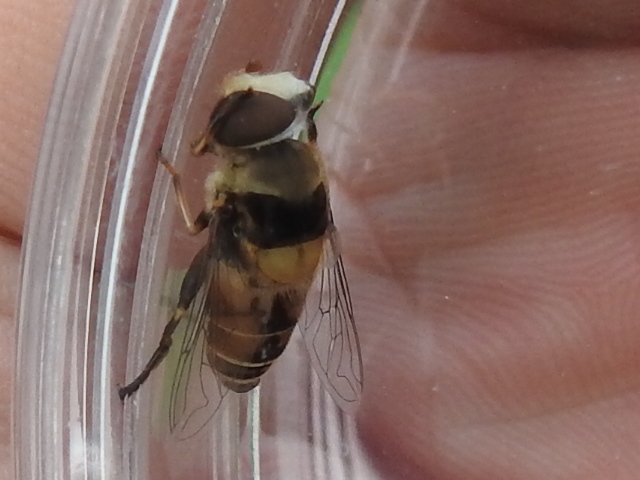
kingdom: Animalia
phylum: Arthropoda
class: Insecta
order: Diptera
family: Syrphidae
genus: Palpada
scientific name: Palpada pusilla
